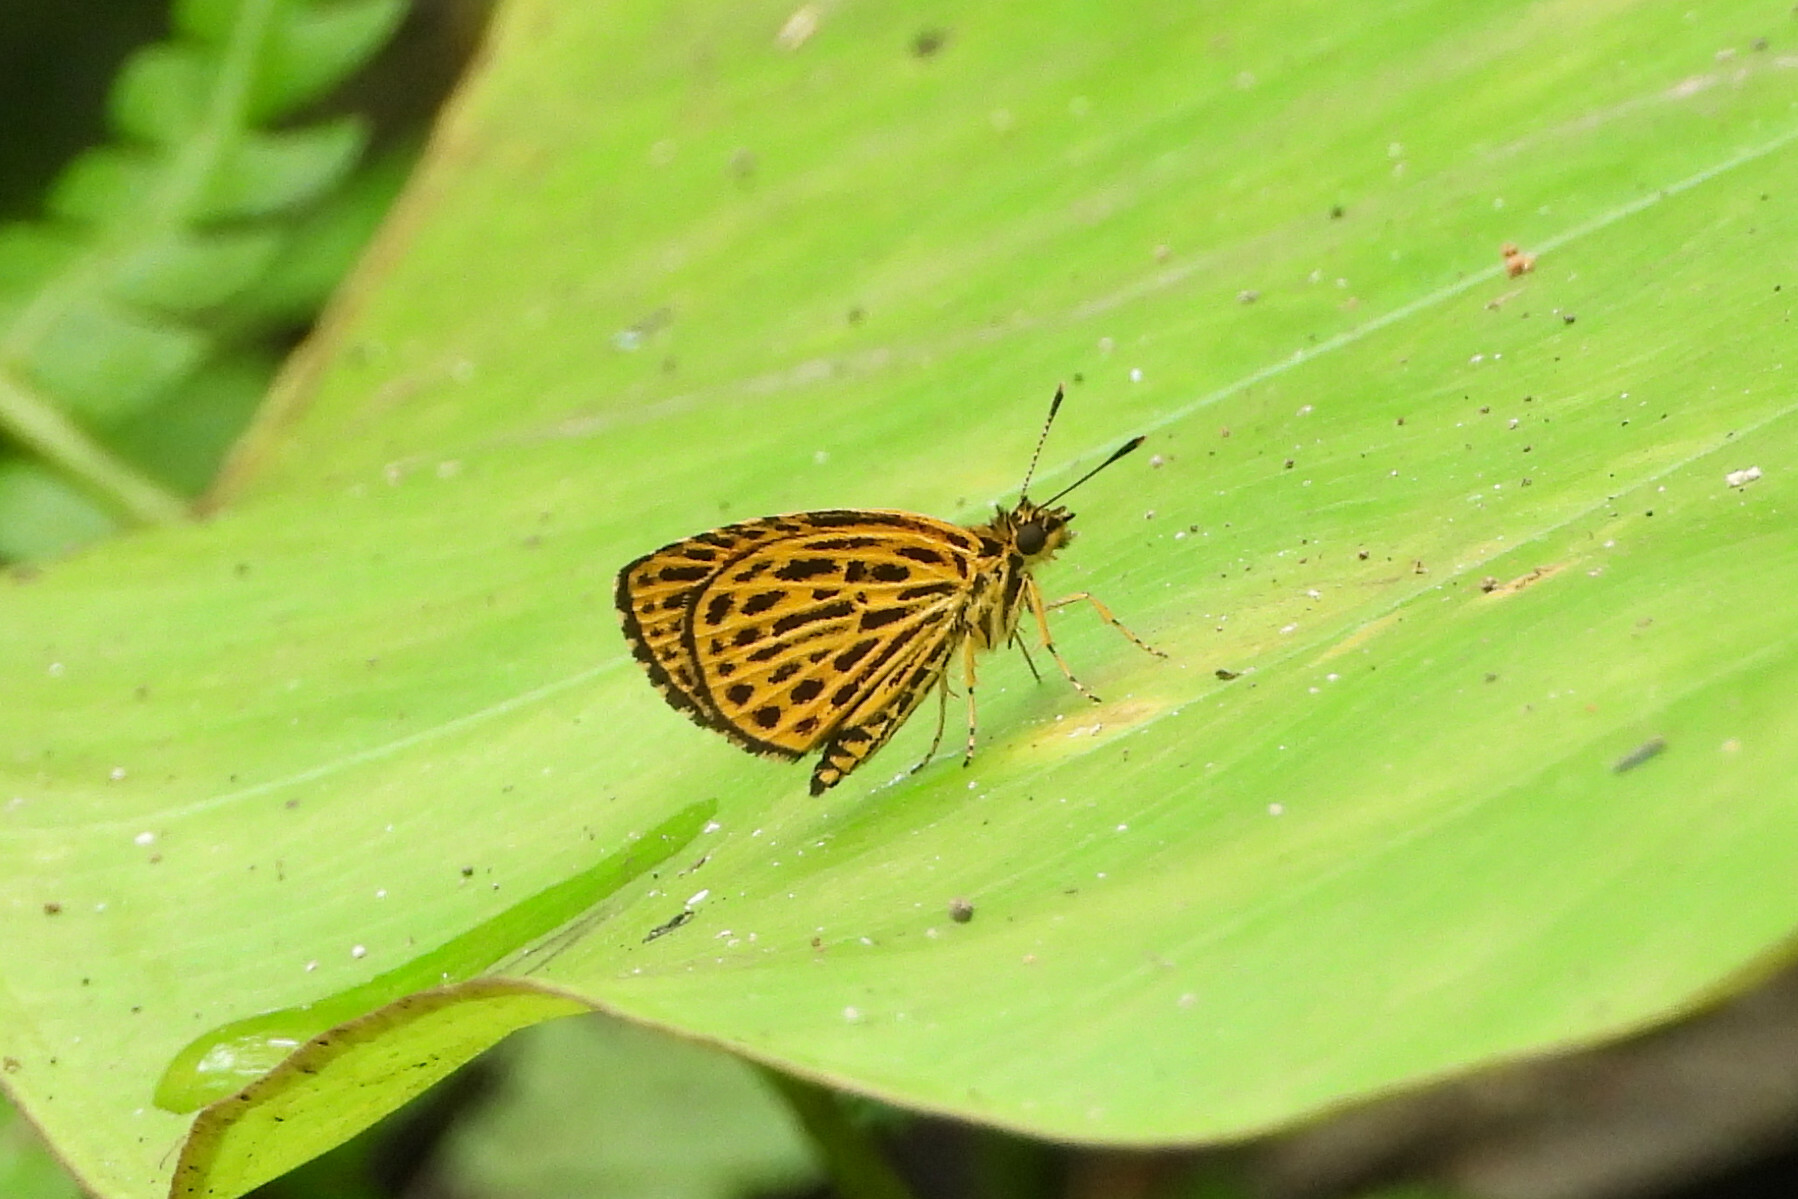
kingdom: Animalia
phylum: Arthropoda
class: Insecta
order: Lepidoptera
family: Hesperiidae
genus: Ampittia
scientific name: Ampittia subvittatus
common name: Tiger hopper
